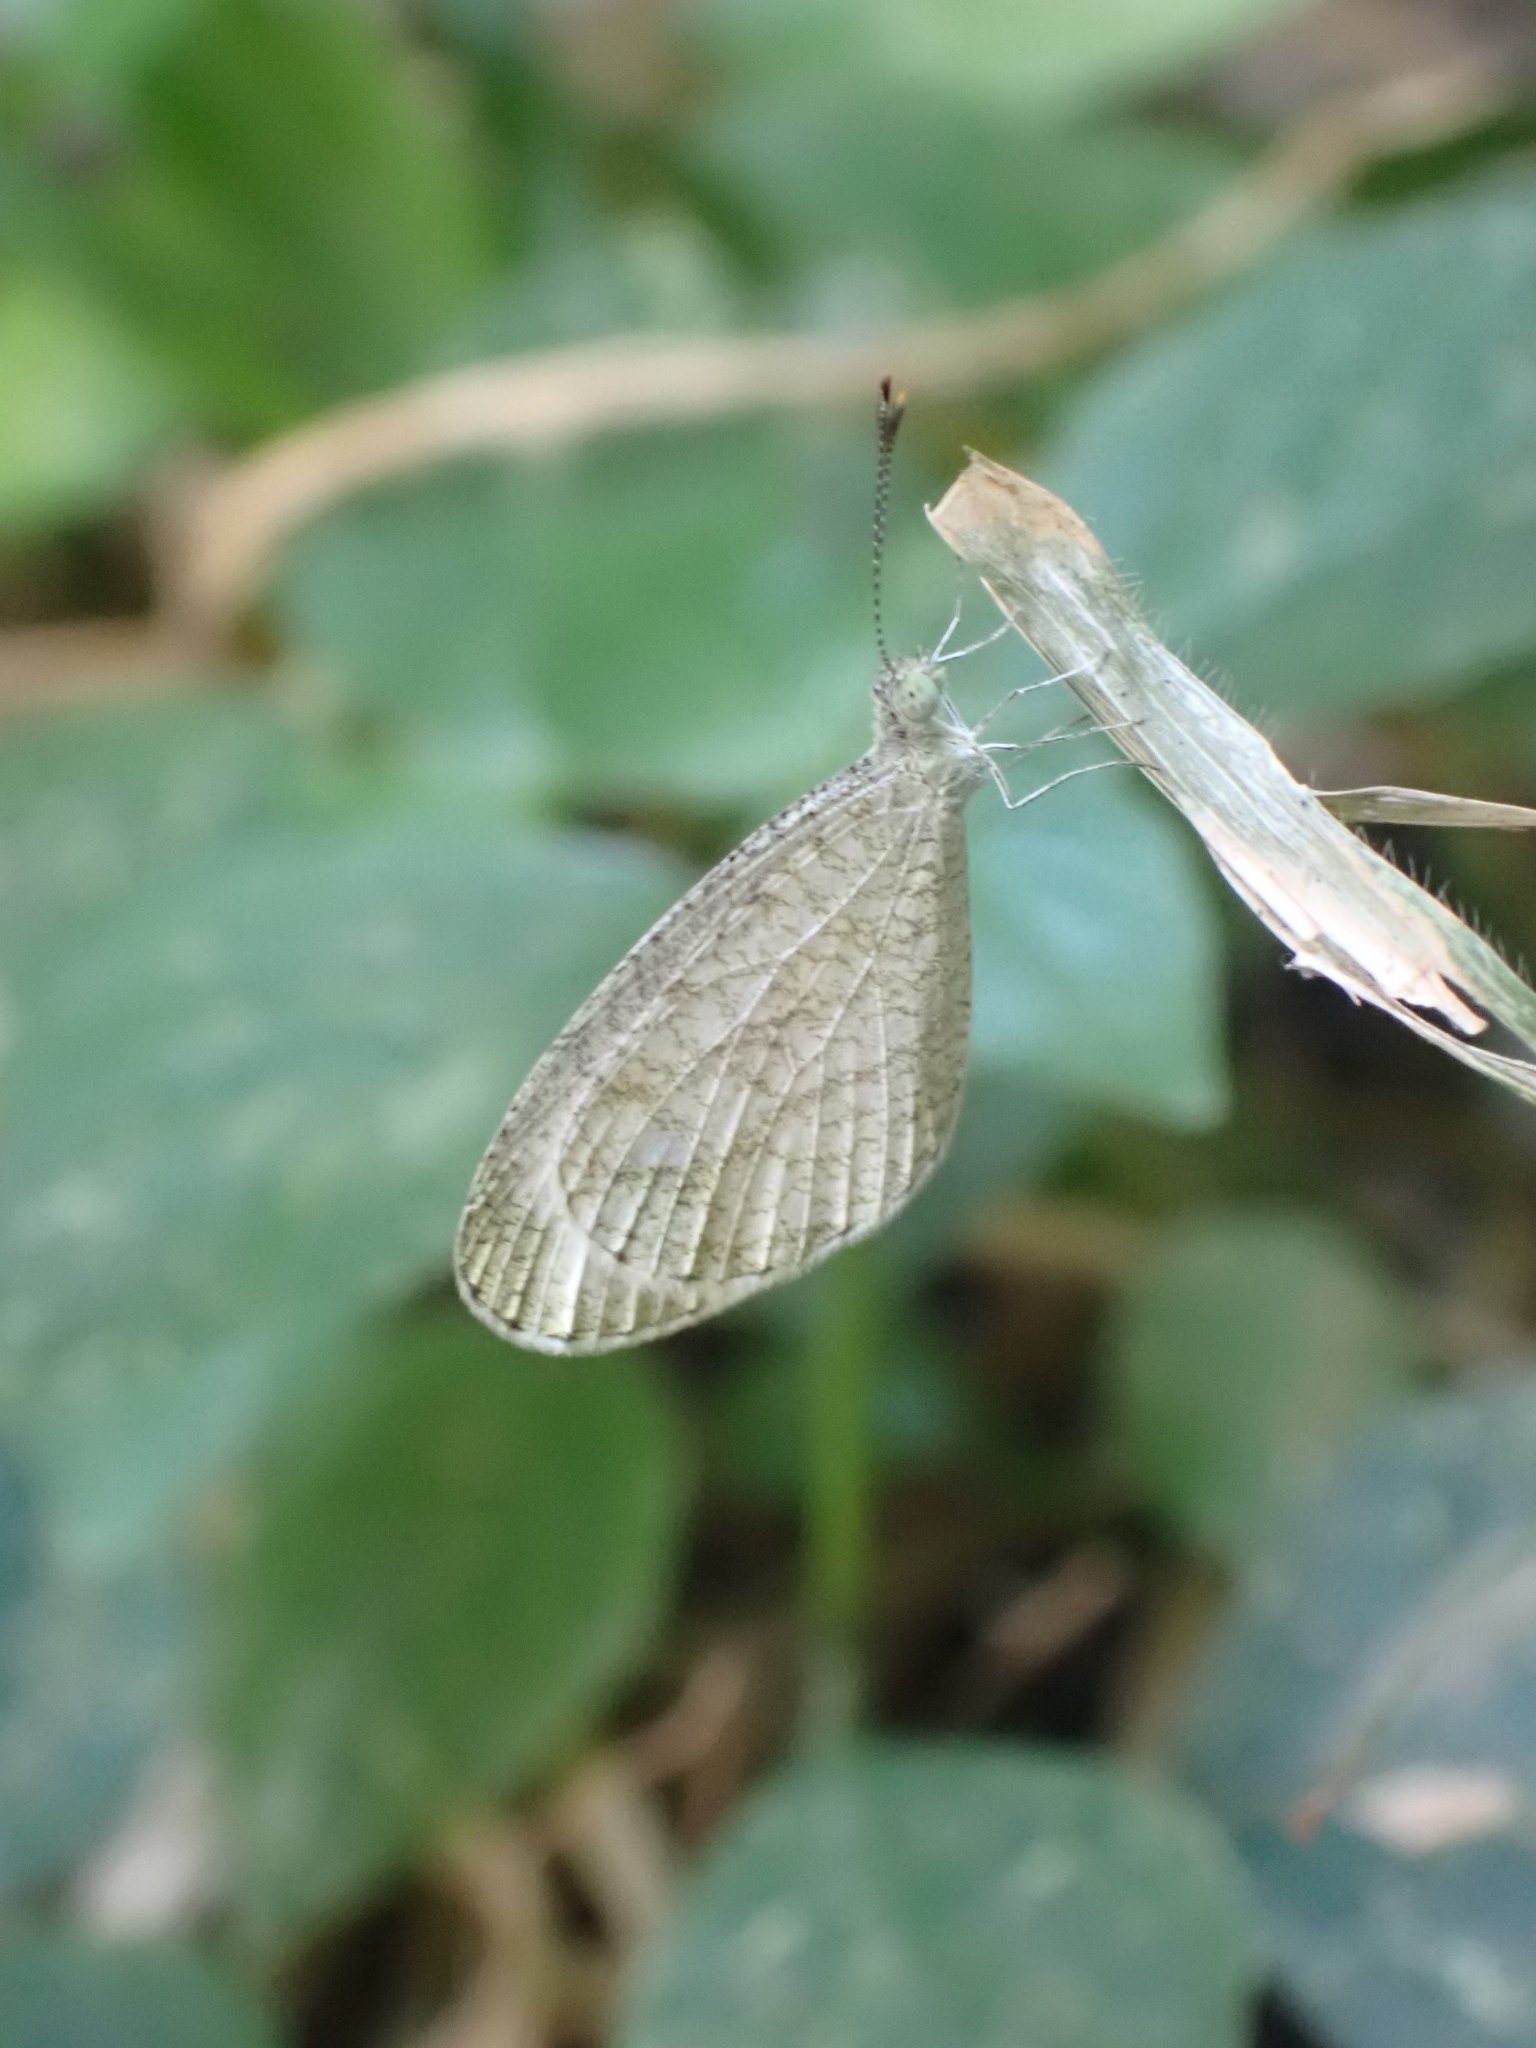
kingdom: Animalia
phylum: Arthropoda
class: Insecta
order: Lepidoptera
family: Pieridae
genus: Leptosia
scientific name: Leptosia nina
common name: Psyche
